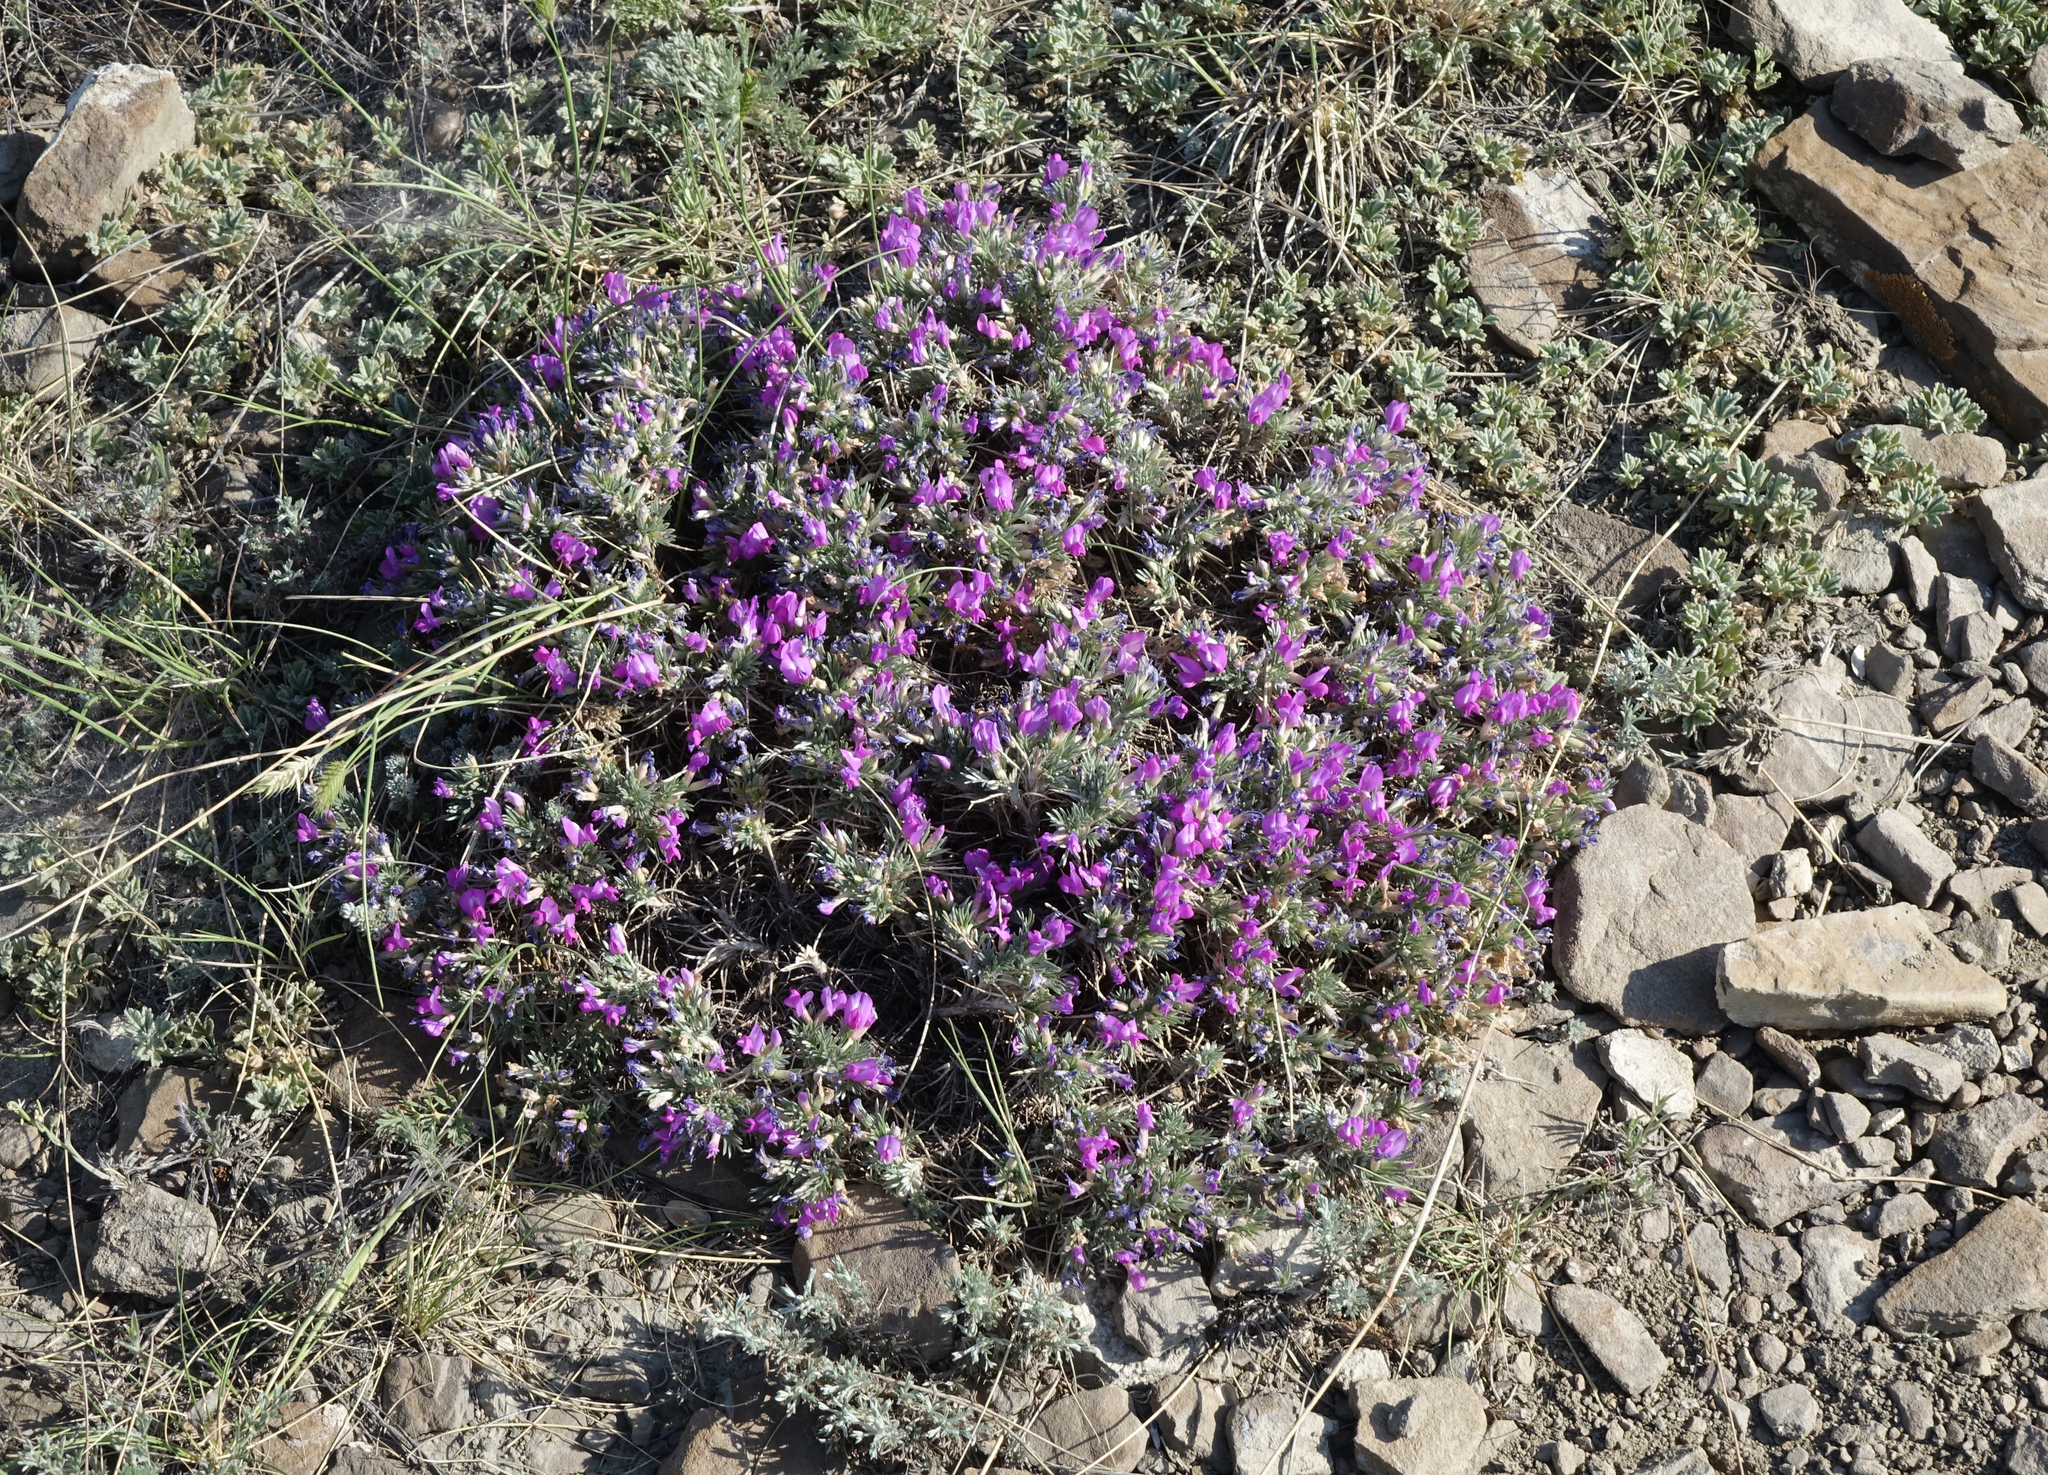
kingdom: Plantae
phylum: Tracheophyta
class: Magnoliopsida
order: Fabales
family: Fabaceae
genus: Oxytropis
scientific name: Oxytropis borissoviae
